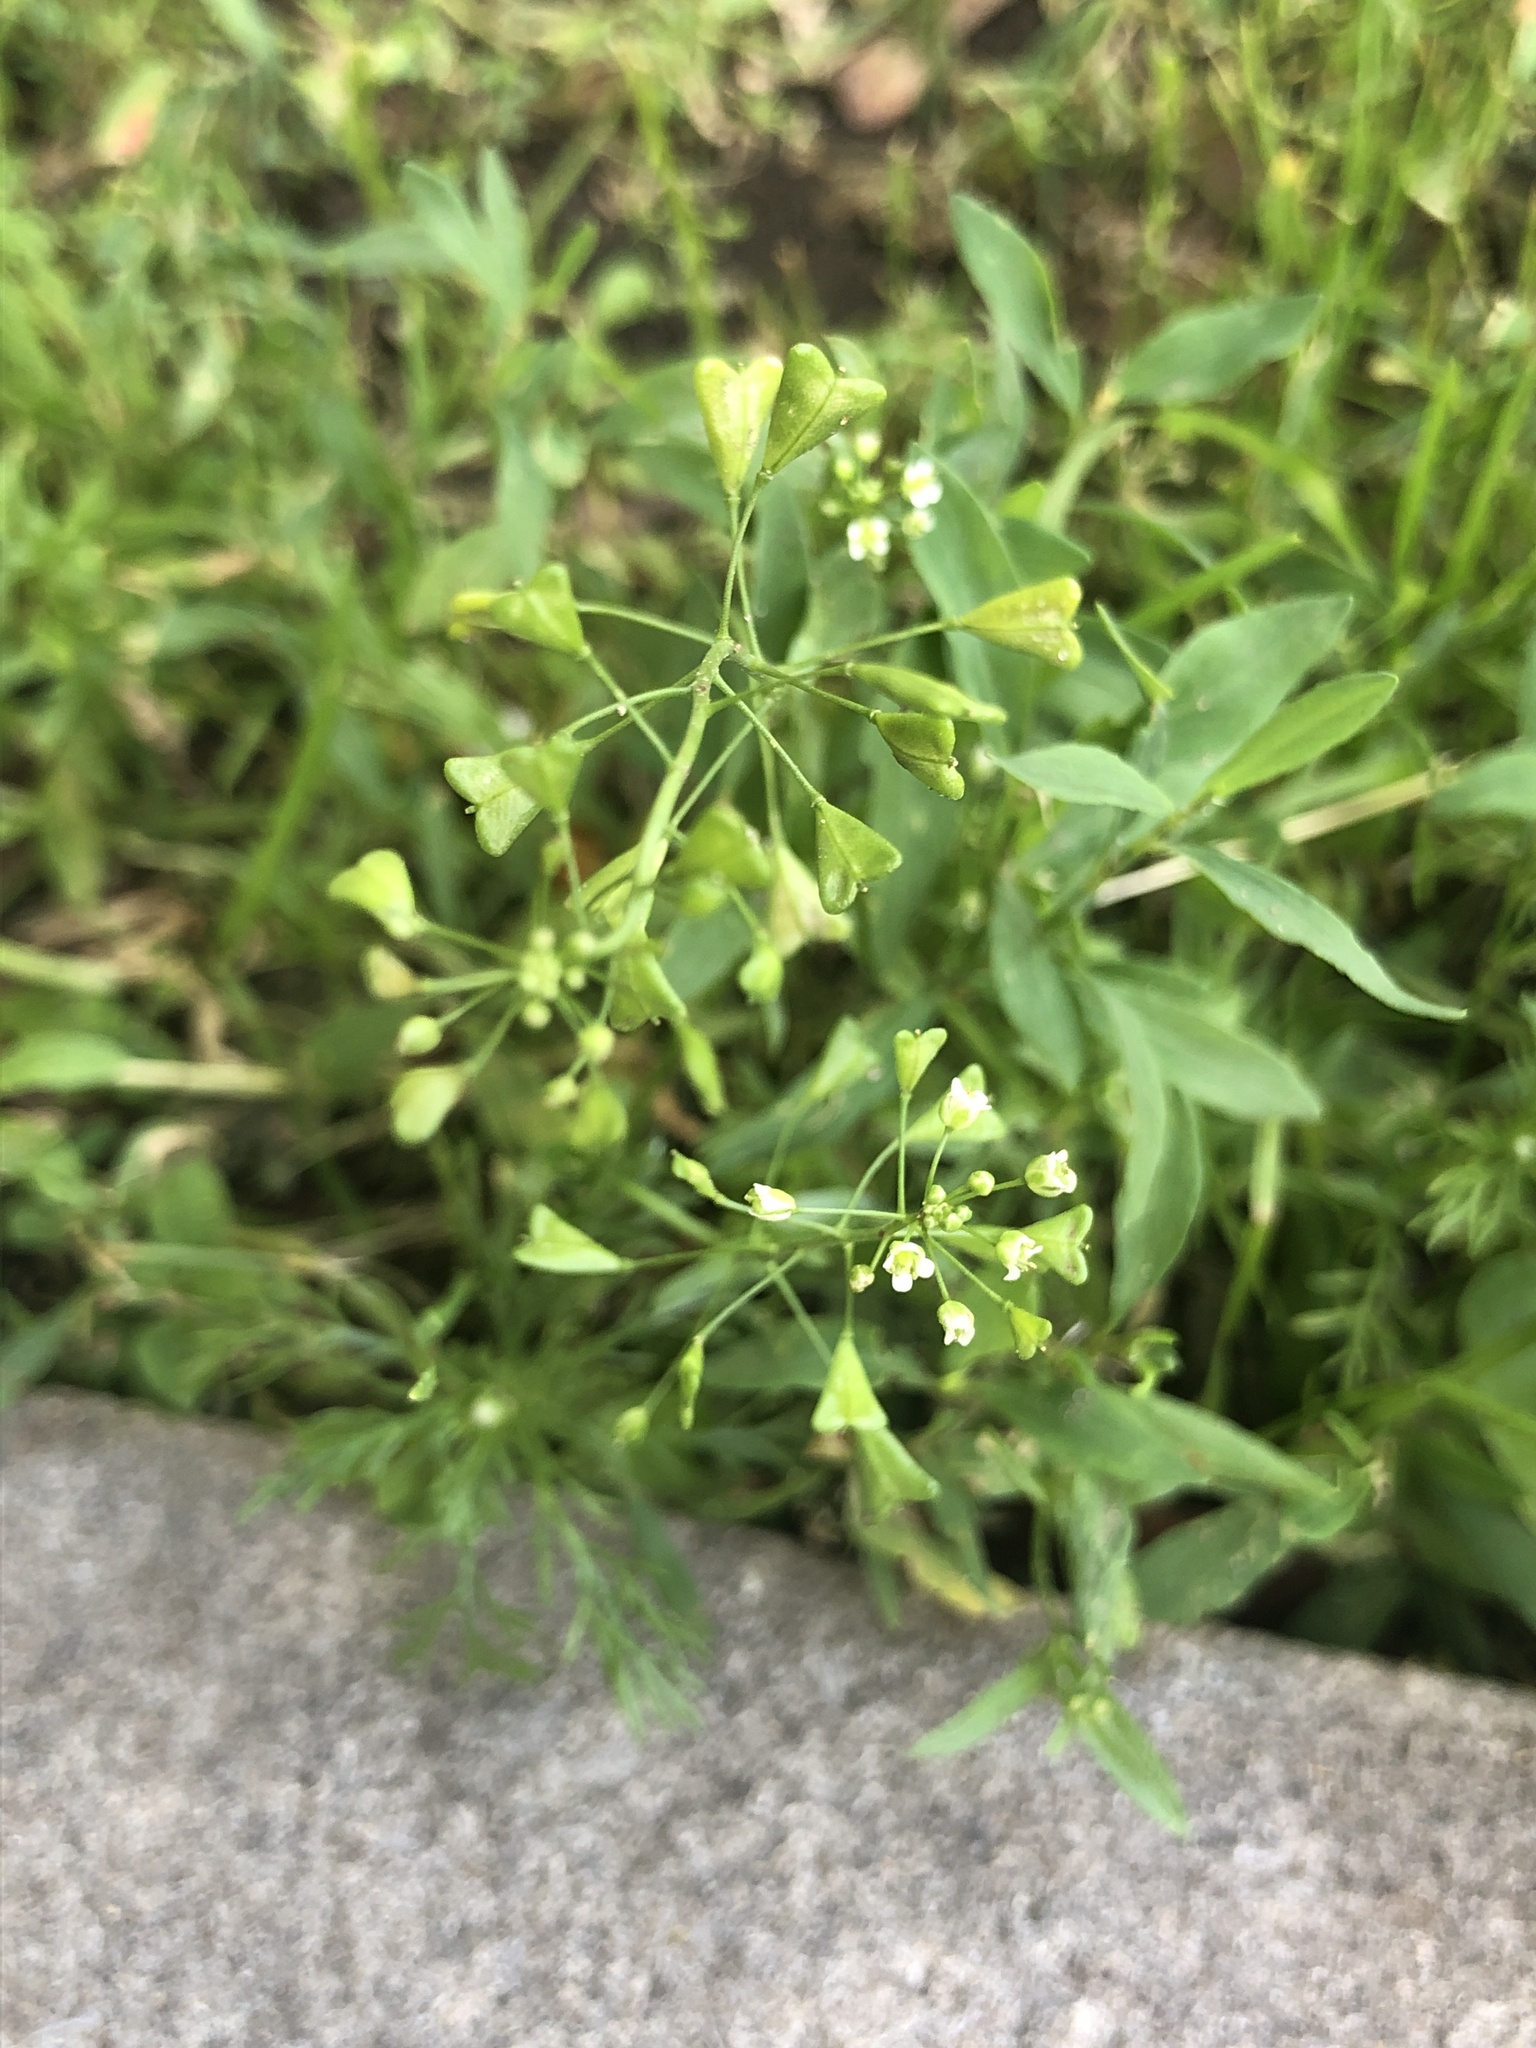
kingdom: Plantae
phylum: Tracheophyta
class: Magnoliopsida
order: Brassicales
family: Brassicaceae
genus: Capsella
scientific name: Capsella bursa-pastoris
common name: Shepherd's purse
